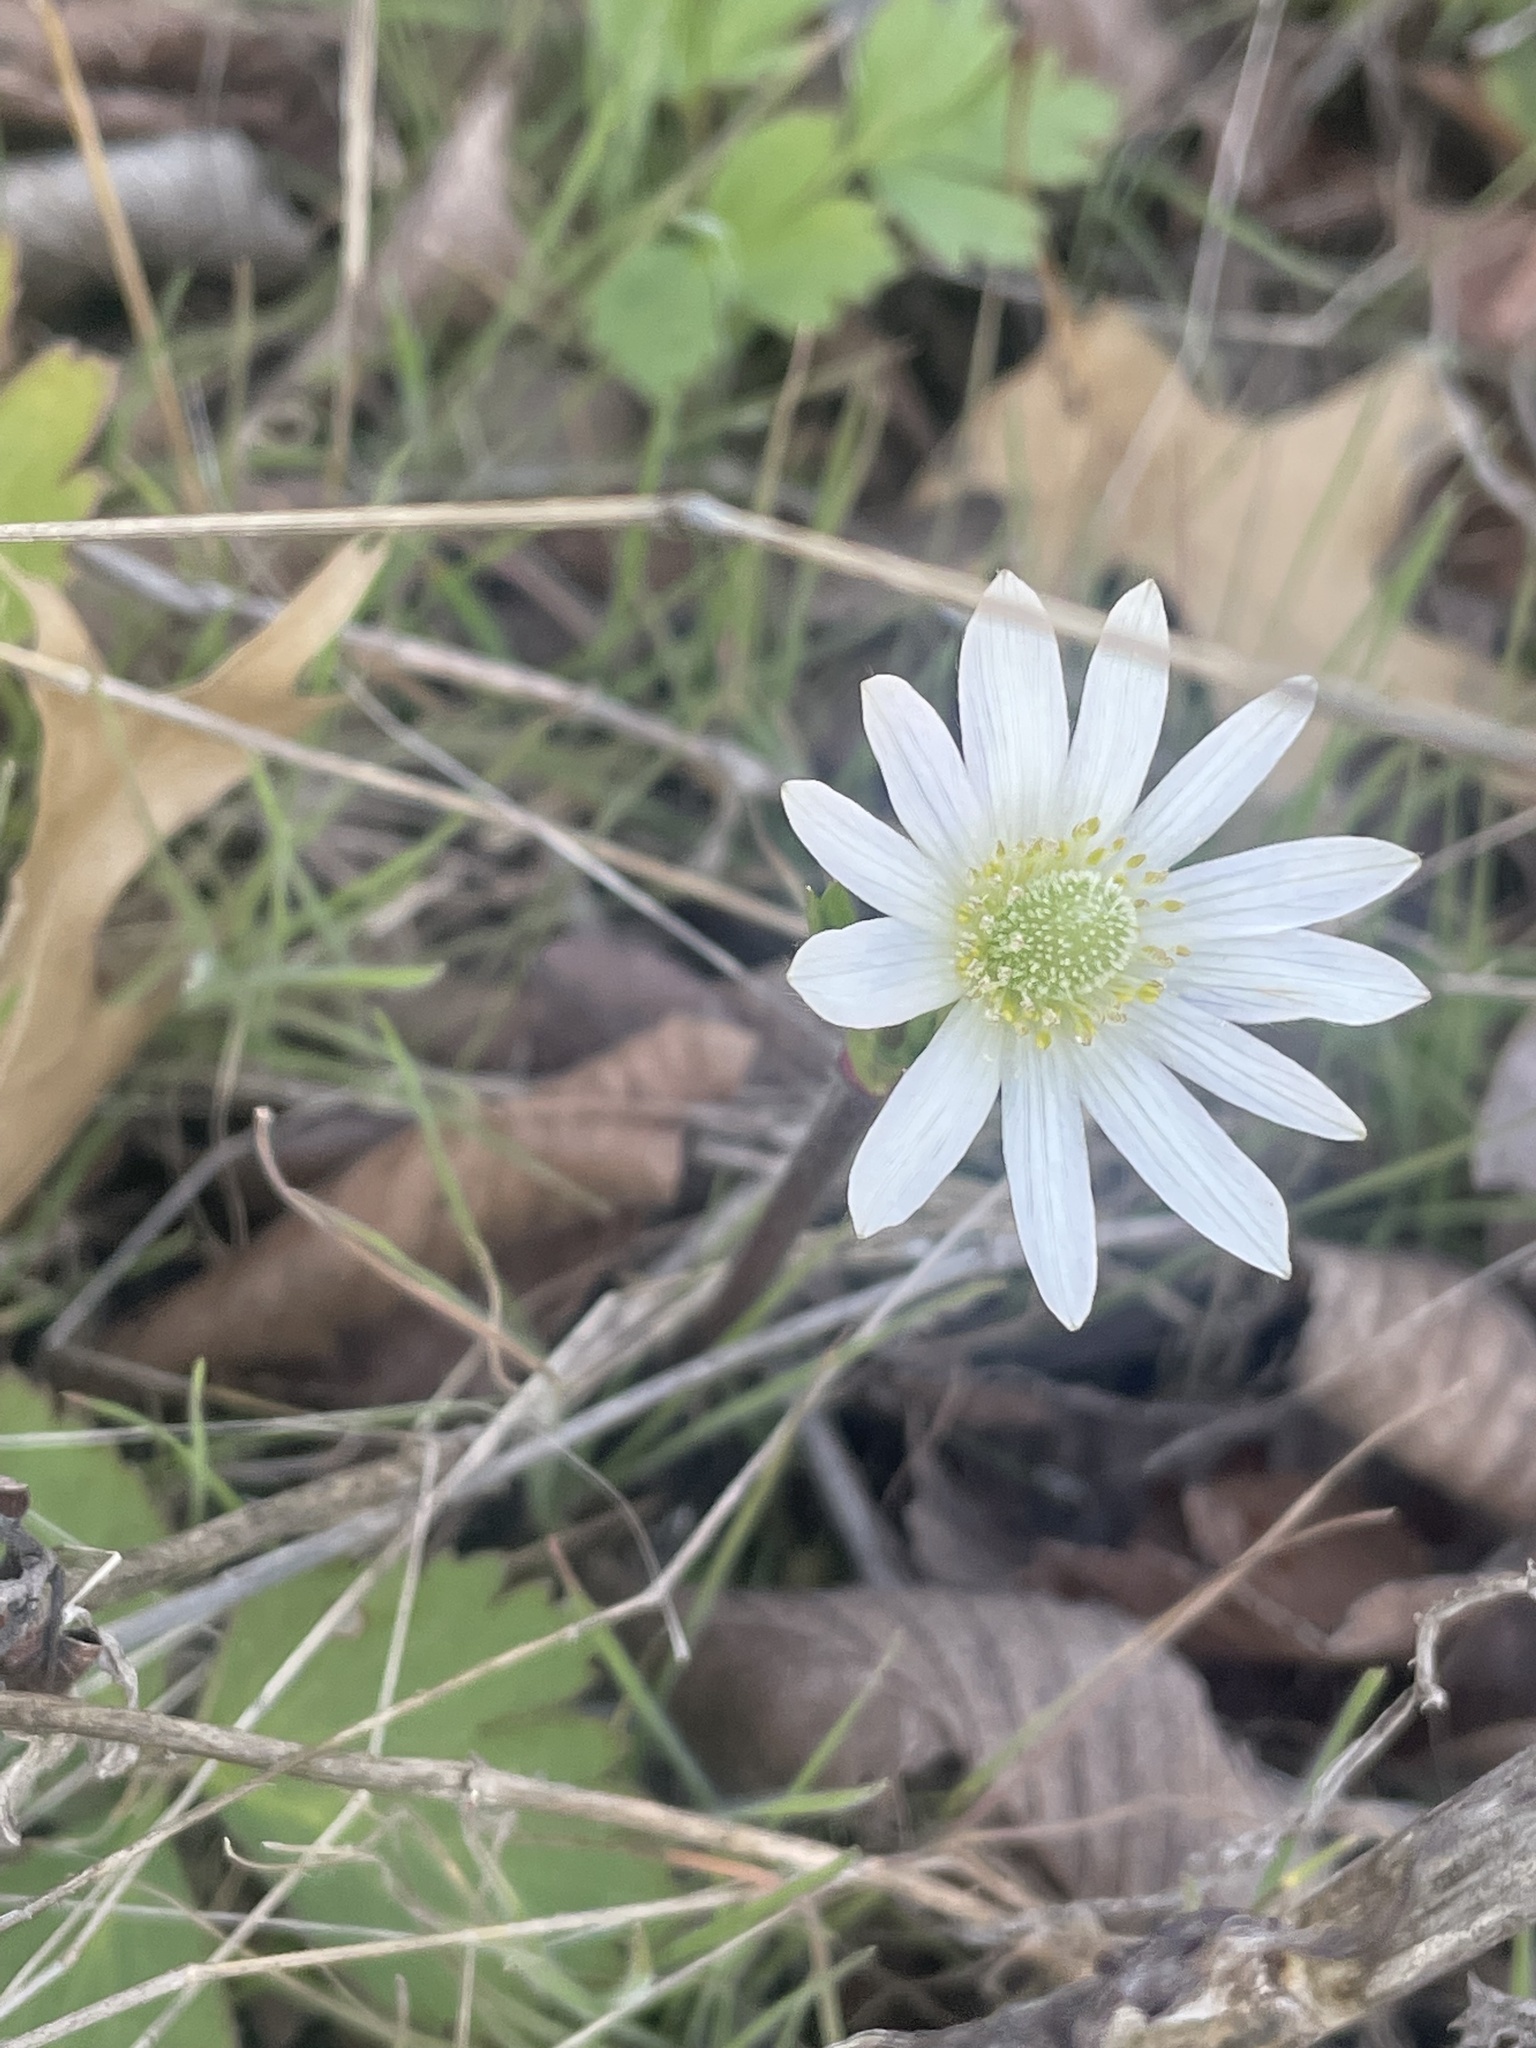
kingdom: Plantae
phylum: Tracheophyta
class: Magnoliopsida
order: Ranunculales
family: Ranunculaceae
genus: Anemone
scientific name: Anemone berlandieri
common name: Ten-petal anemone
